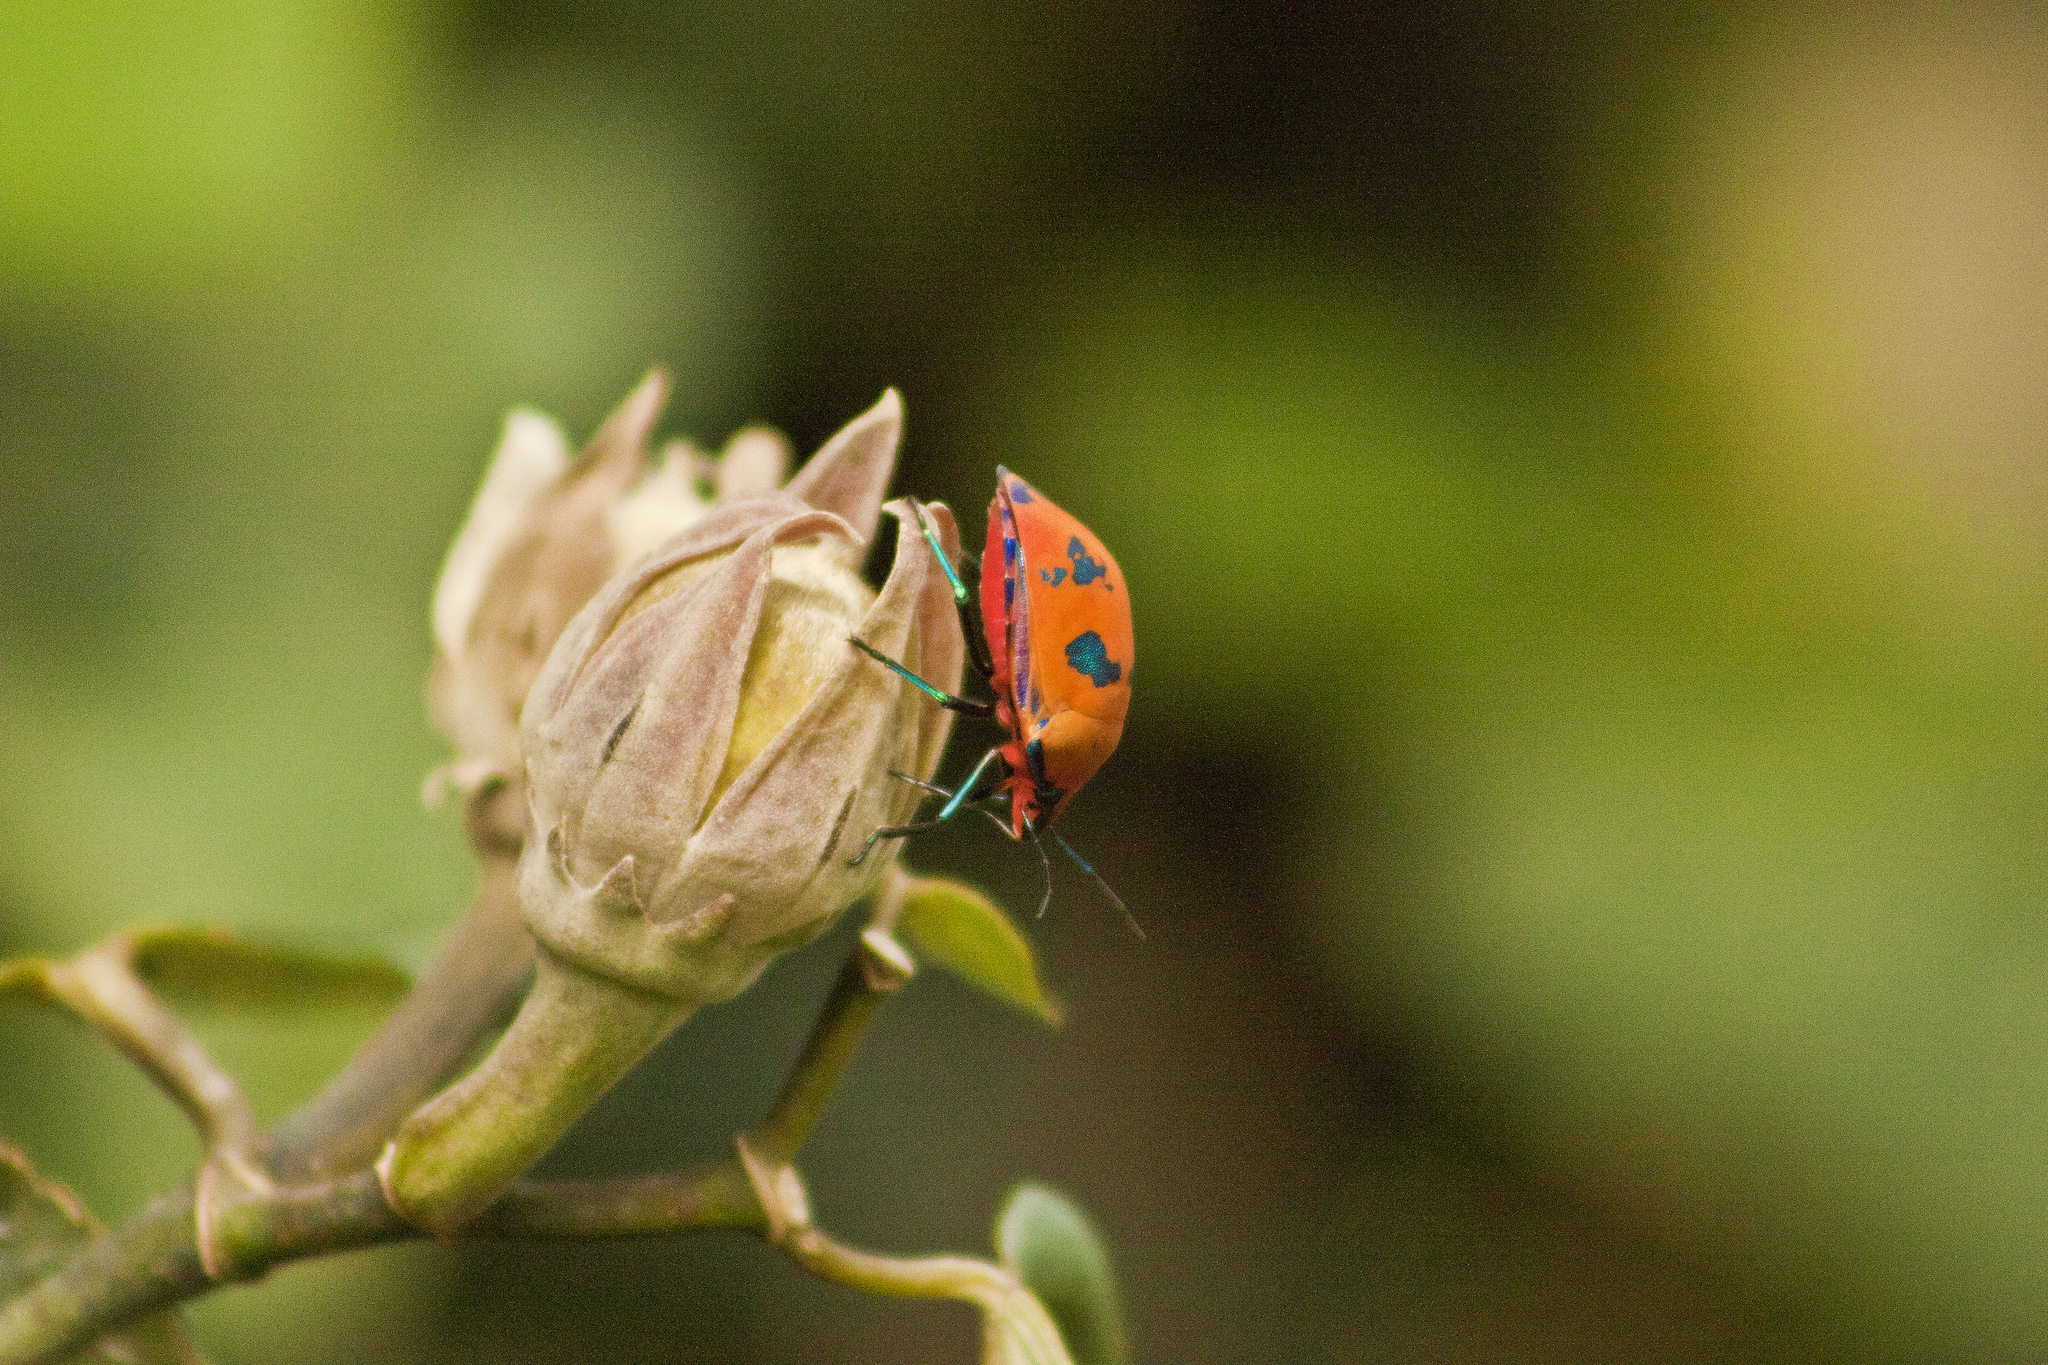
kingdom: Animalia
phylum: Arthropoda
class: Insecta
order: Hemiptera
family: Scutelleridae
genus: Tectocoris
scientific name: Tectocoris diophthalmus
